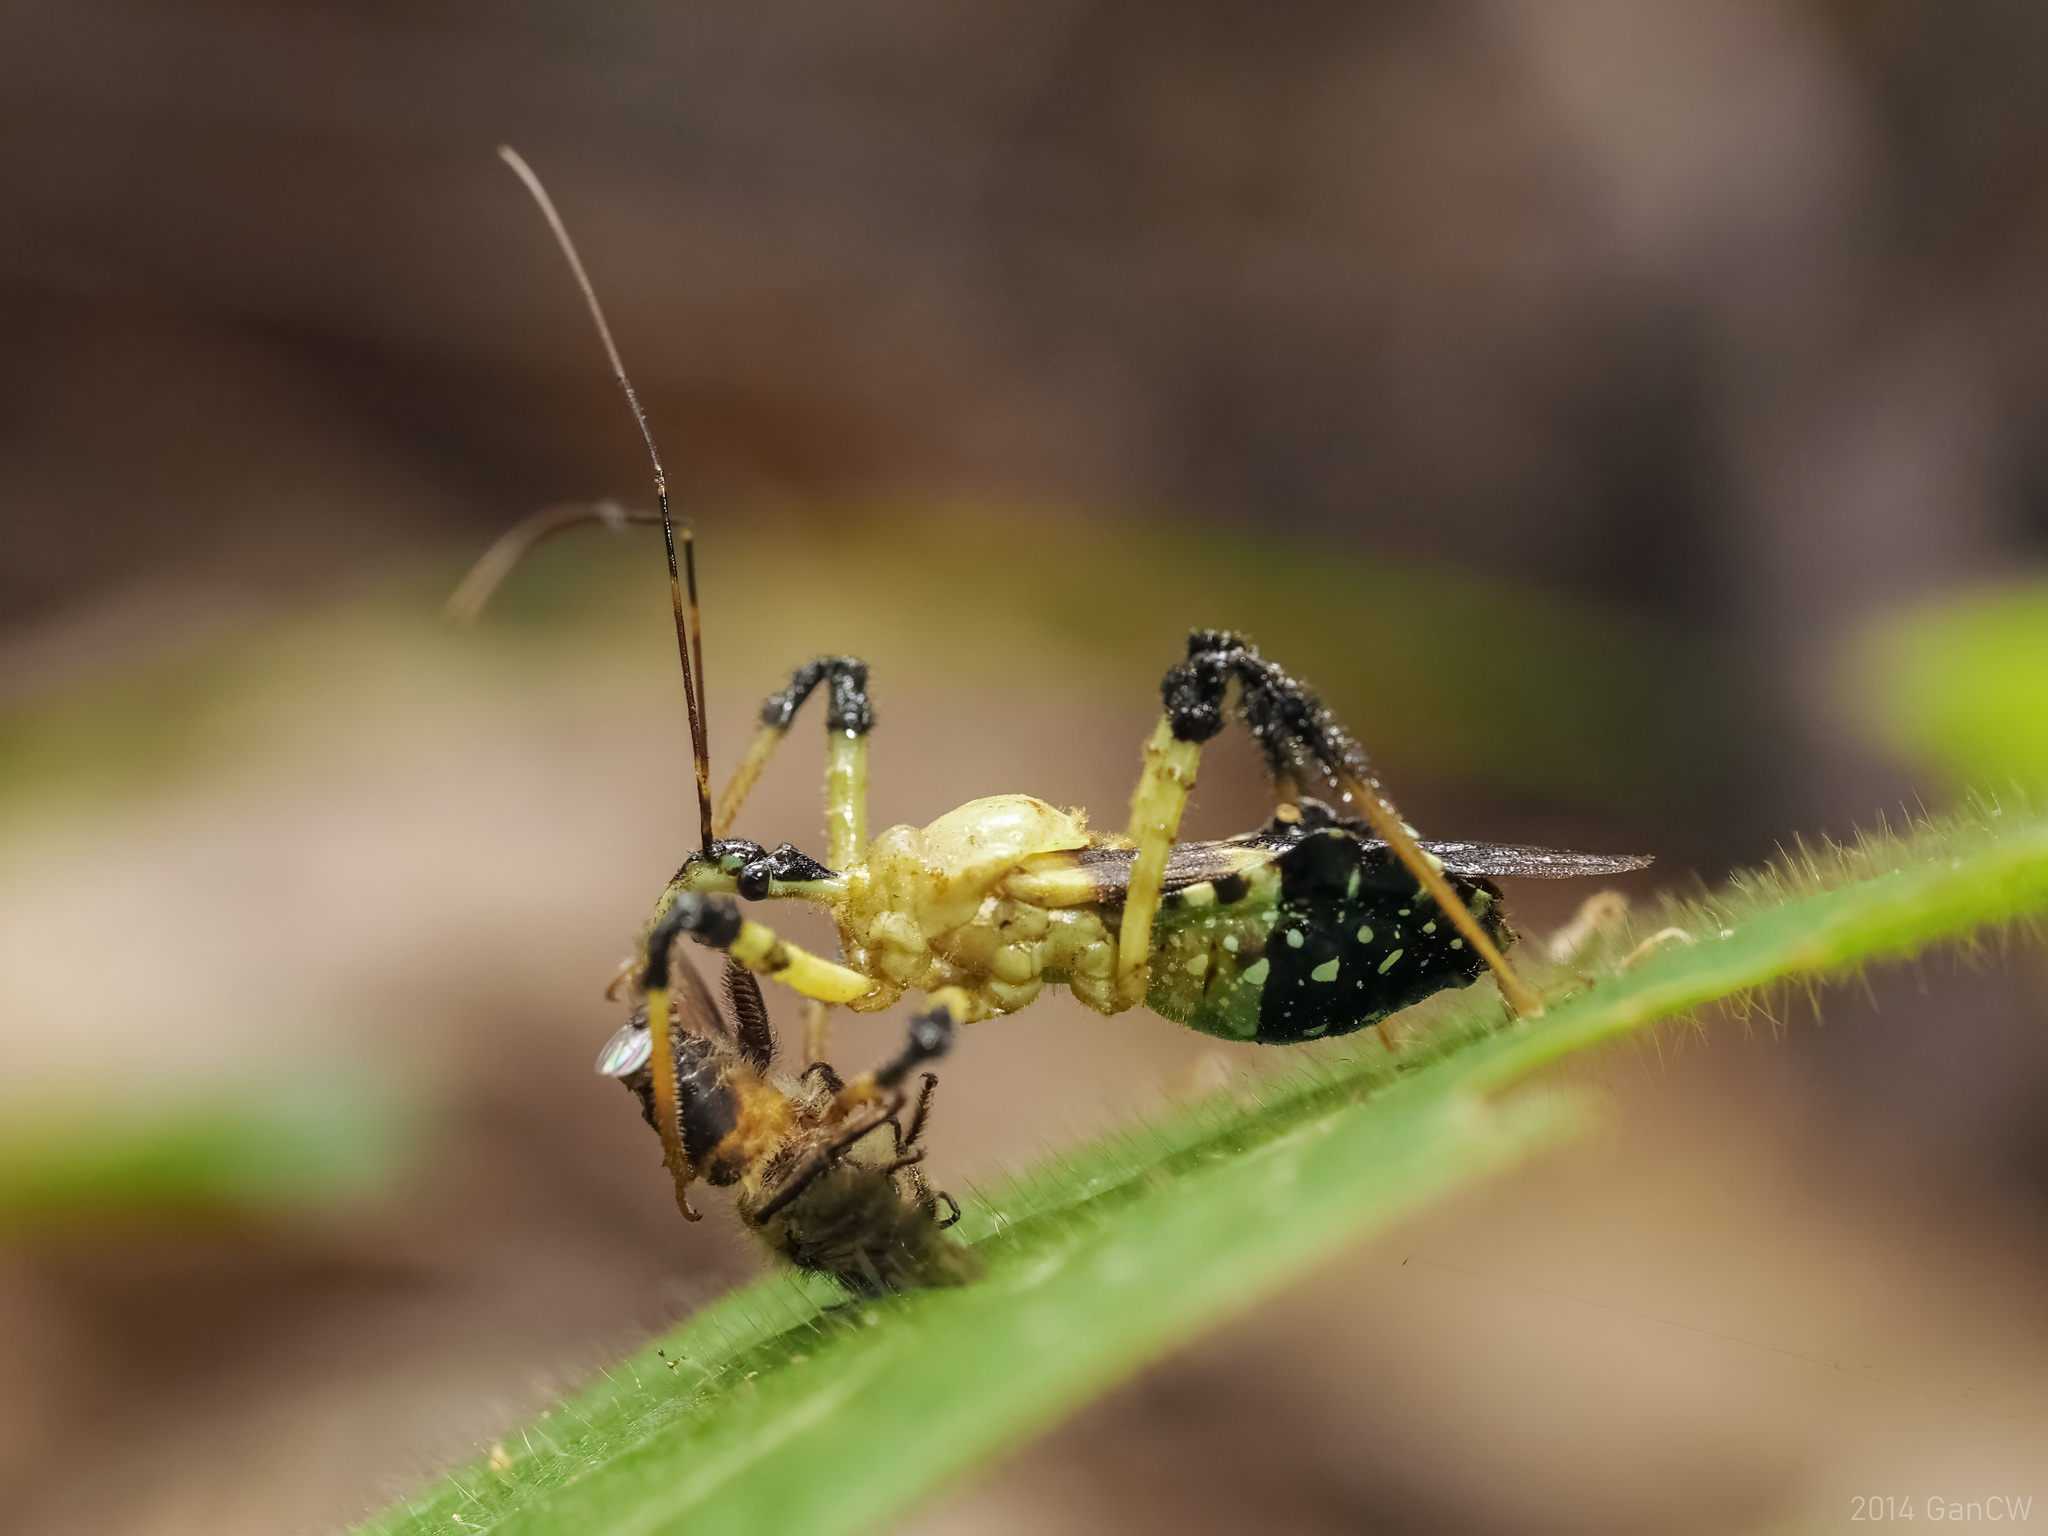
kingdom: Animalia
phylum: Arthropoda
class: Insecta
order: Hemiptera
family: Reduviidae
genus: Velinus
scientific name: Velinus malayus
